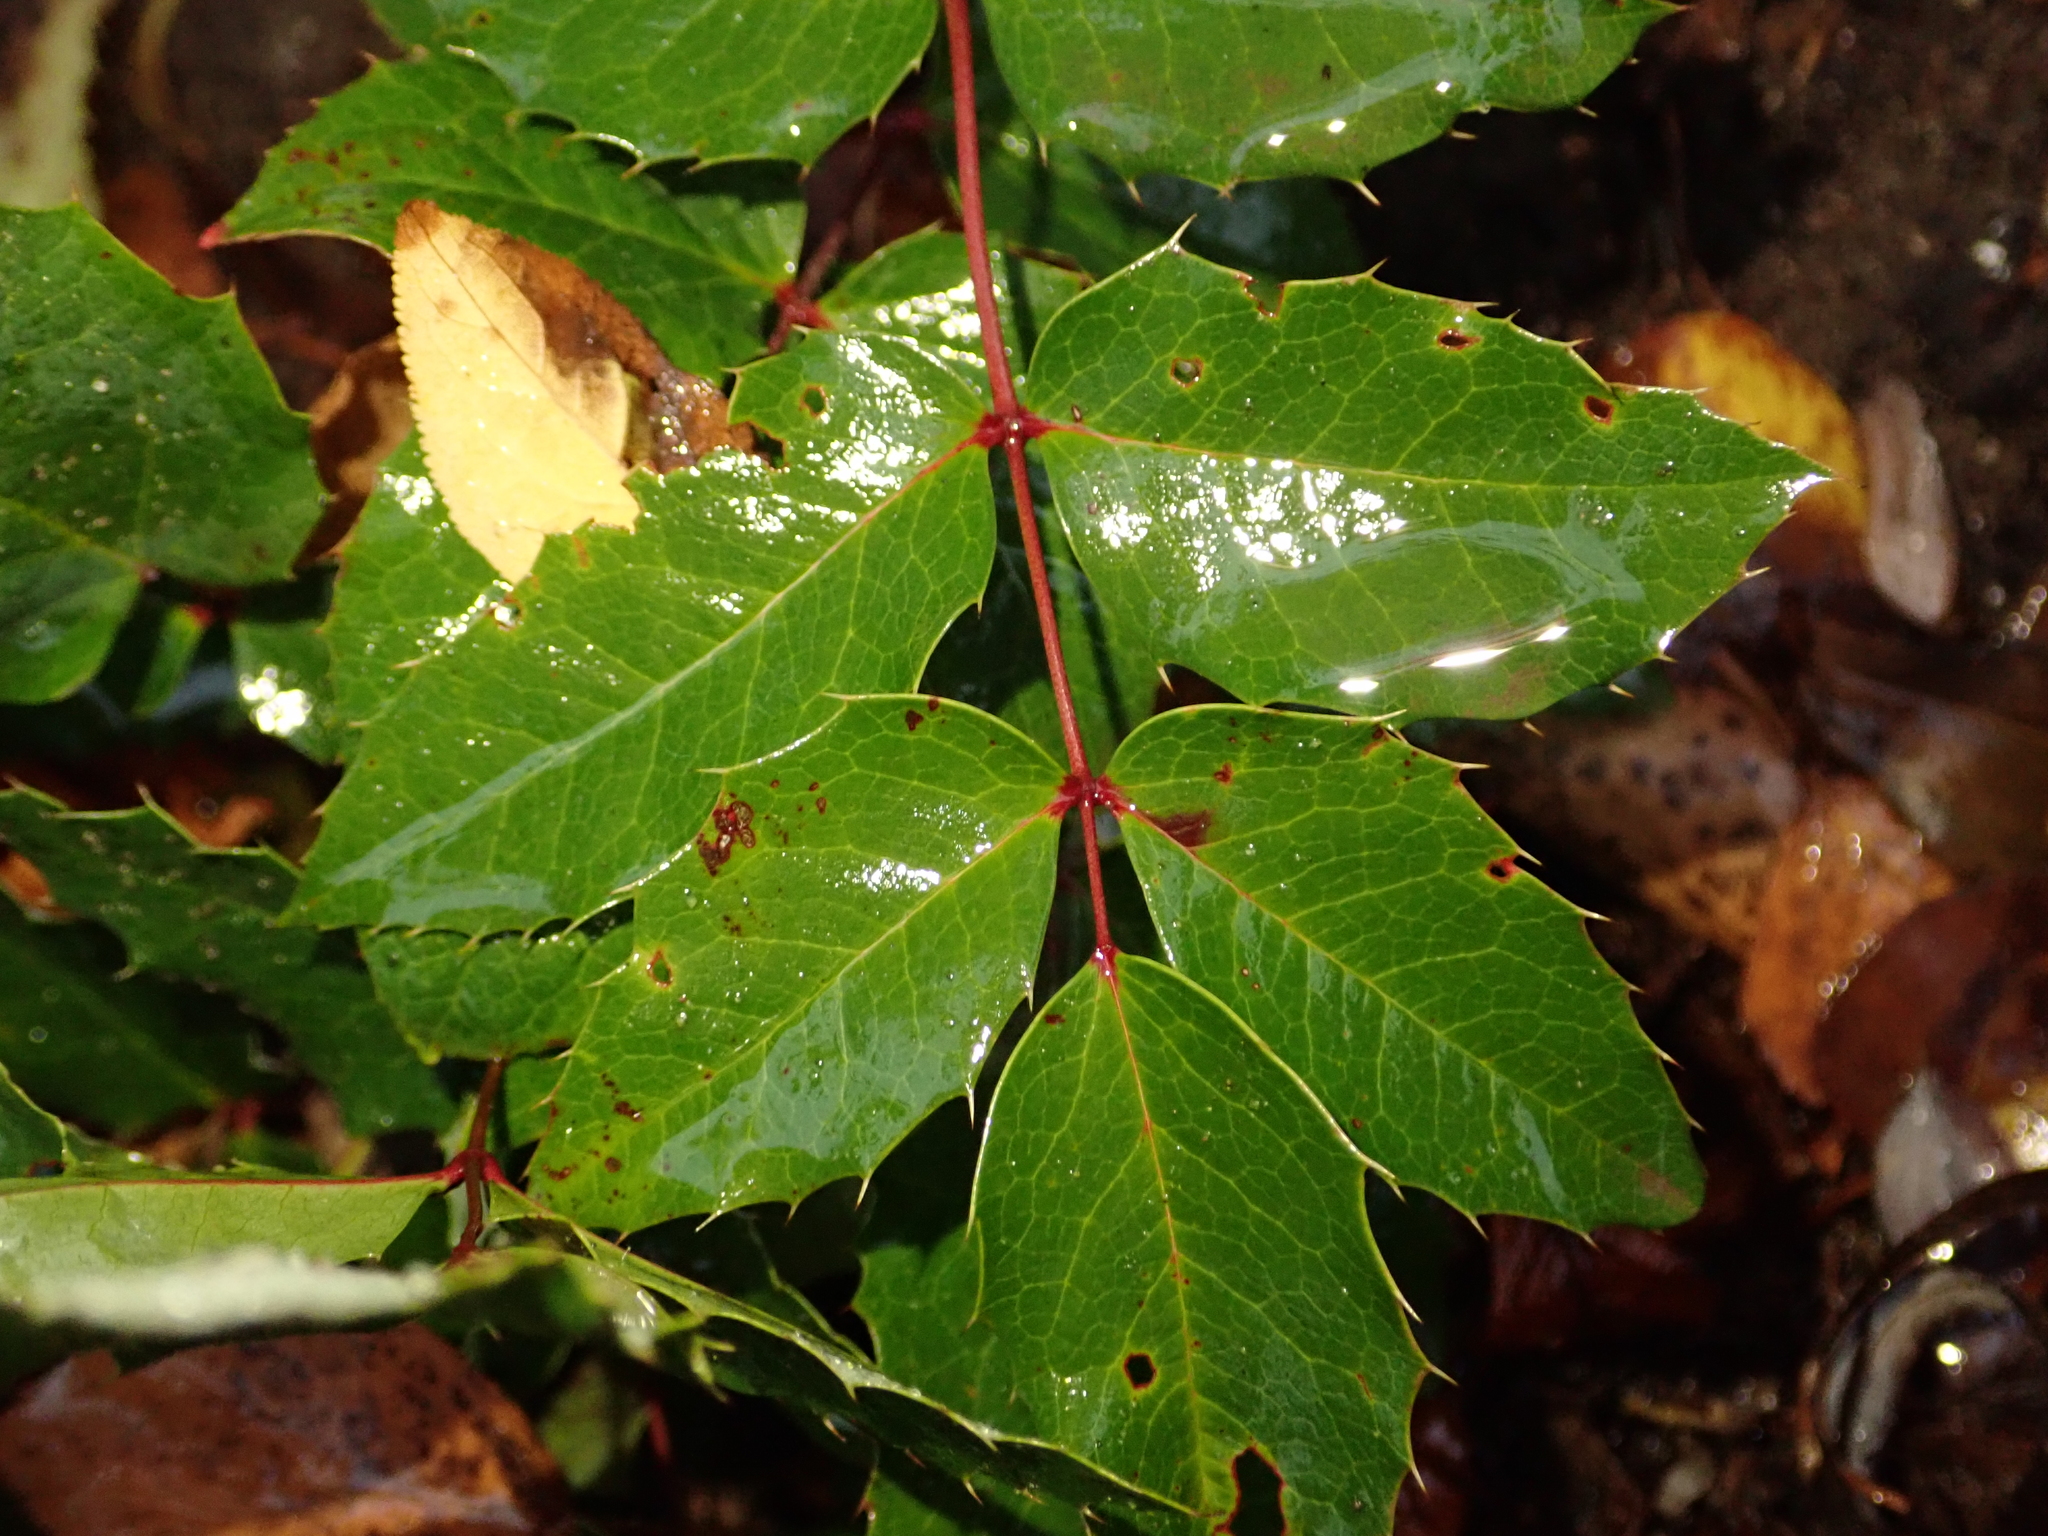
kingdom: Plantae
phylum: Tracheophyta
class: Magnoliopsida
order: Ranunculales
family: Berberidaceae
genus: Mahonia
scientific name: Mahonia aquifolium
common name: Oregon-grape
